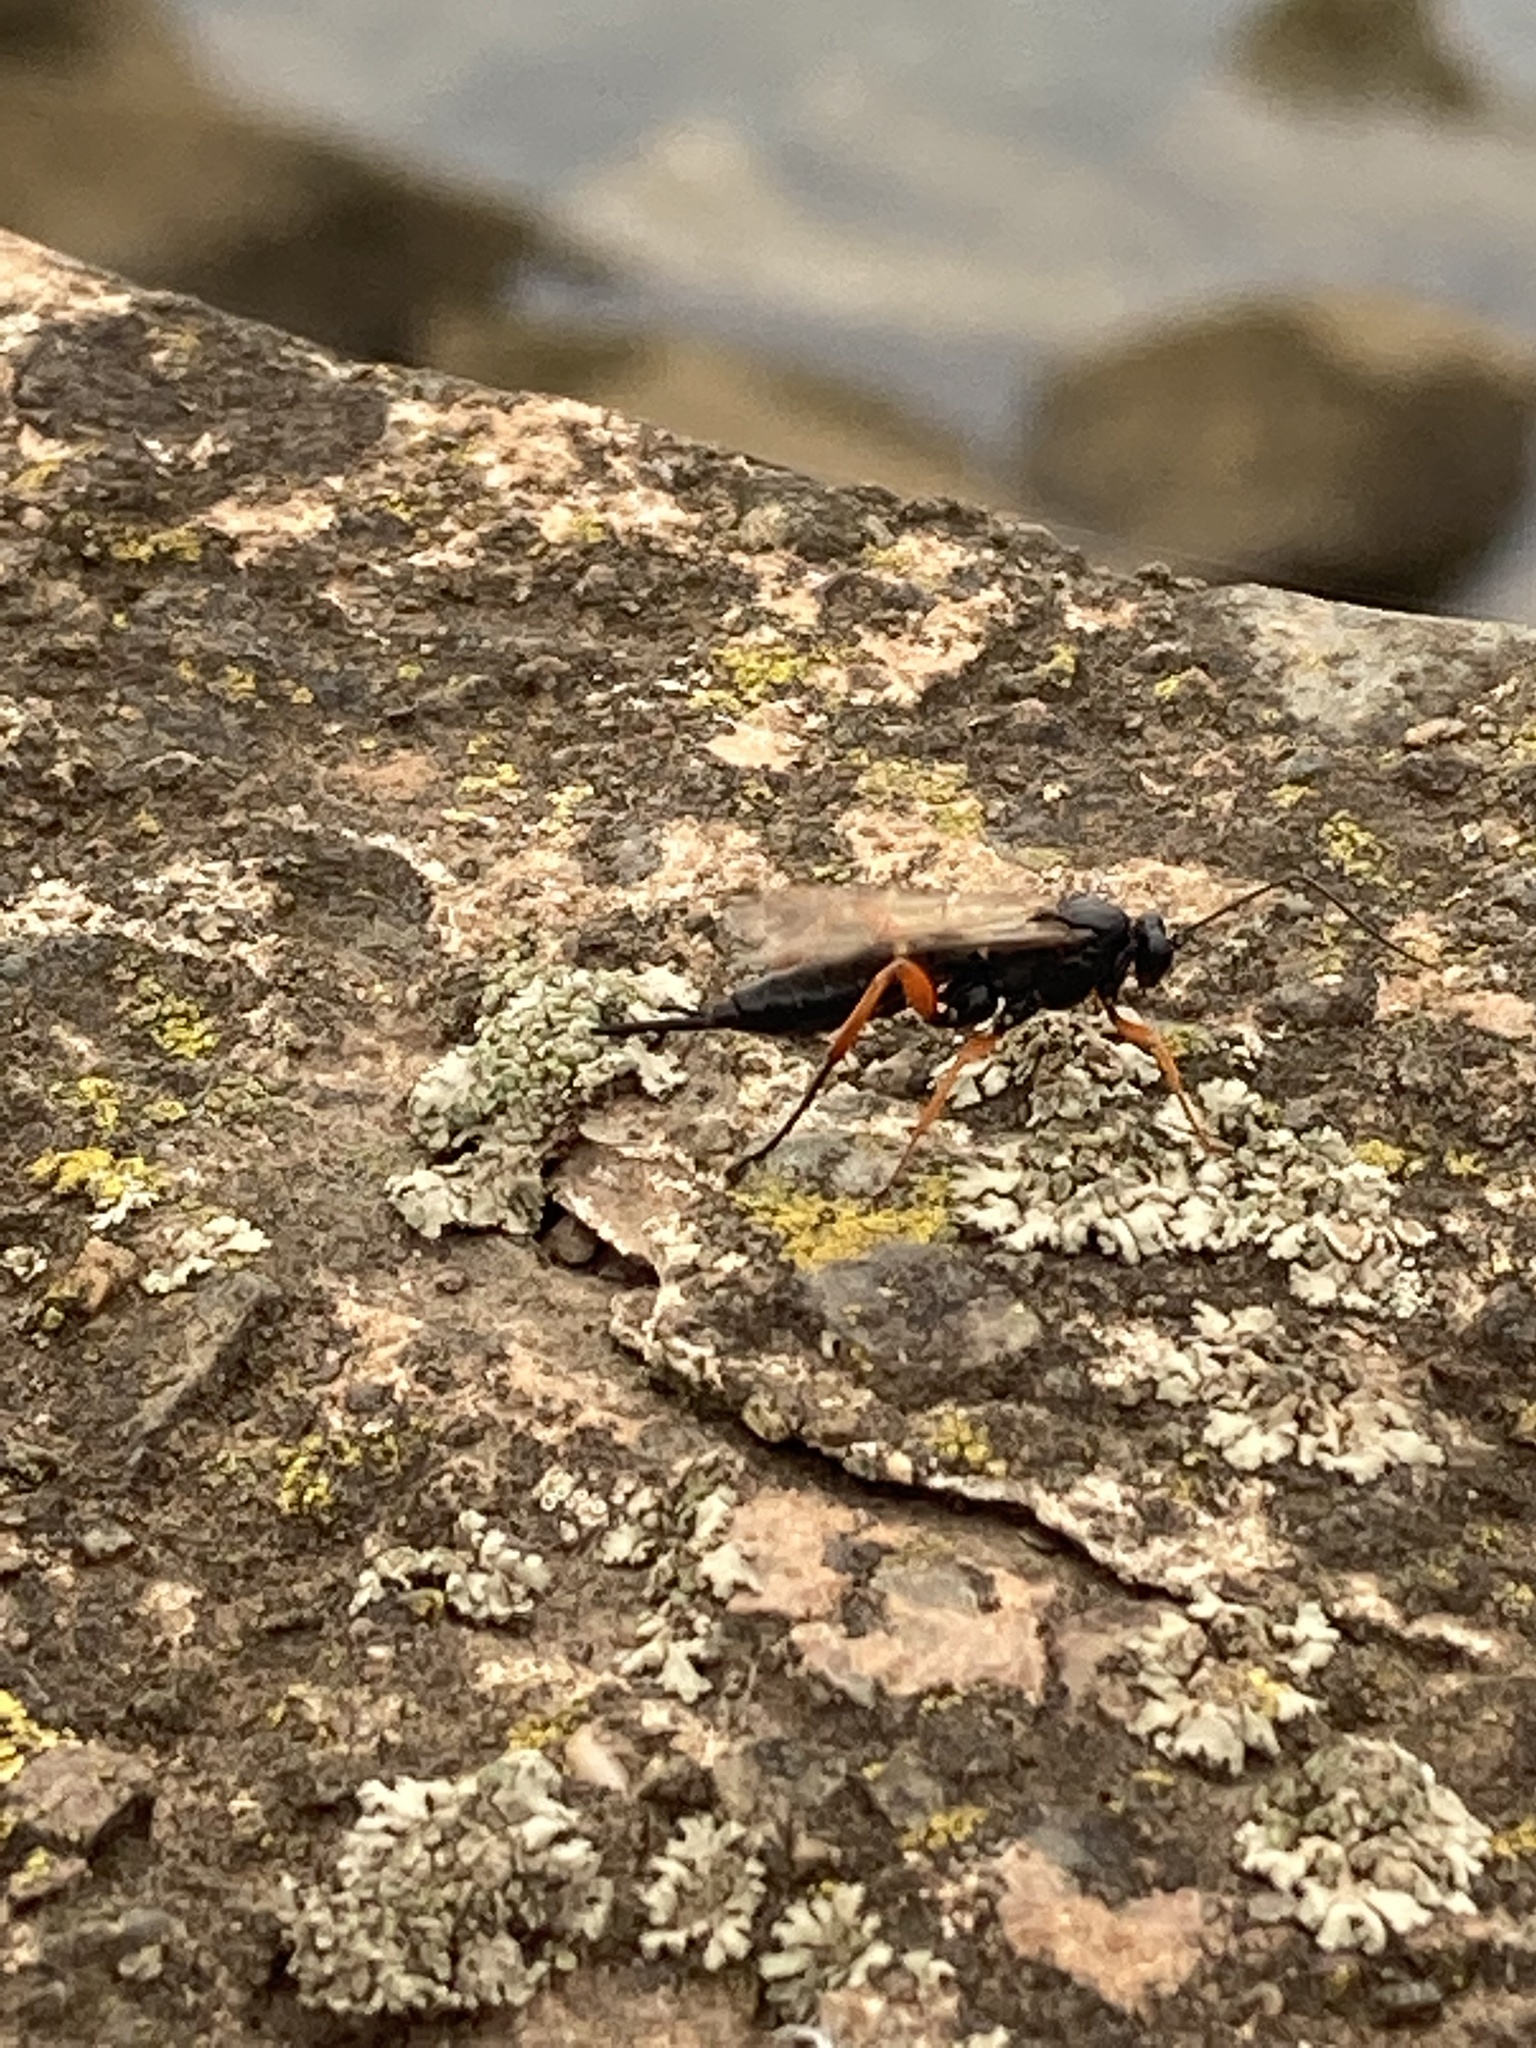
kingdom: Animalia
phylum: Arthropoda
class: Insecta
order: Hymenoptera
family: Ichneumonidae
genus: Pimpla
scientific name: Pimpla rufipes
